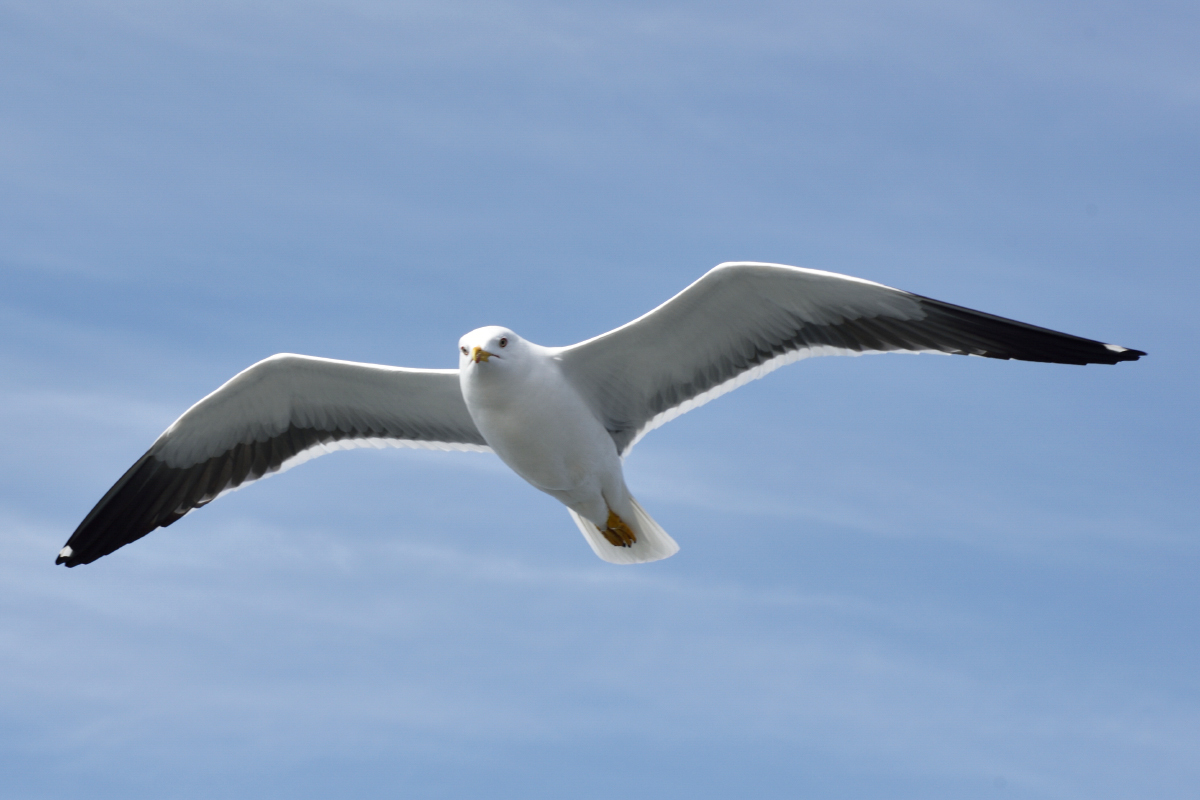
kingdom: Animalia
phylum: Chordata
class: Aves
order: Charadriiformes
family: Laridae
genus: Larus
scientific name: Larus fuscus
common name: Lesser black-backed gull
